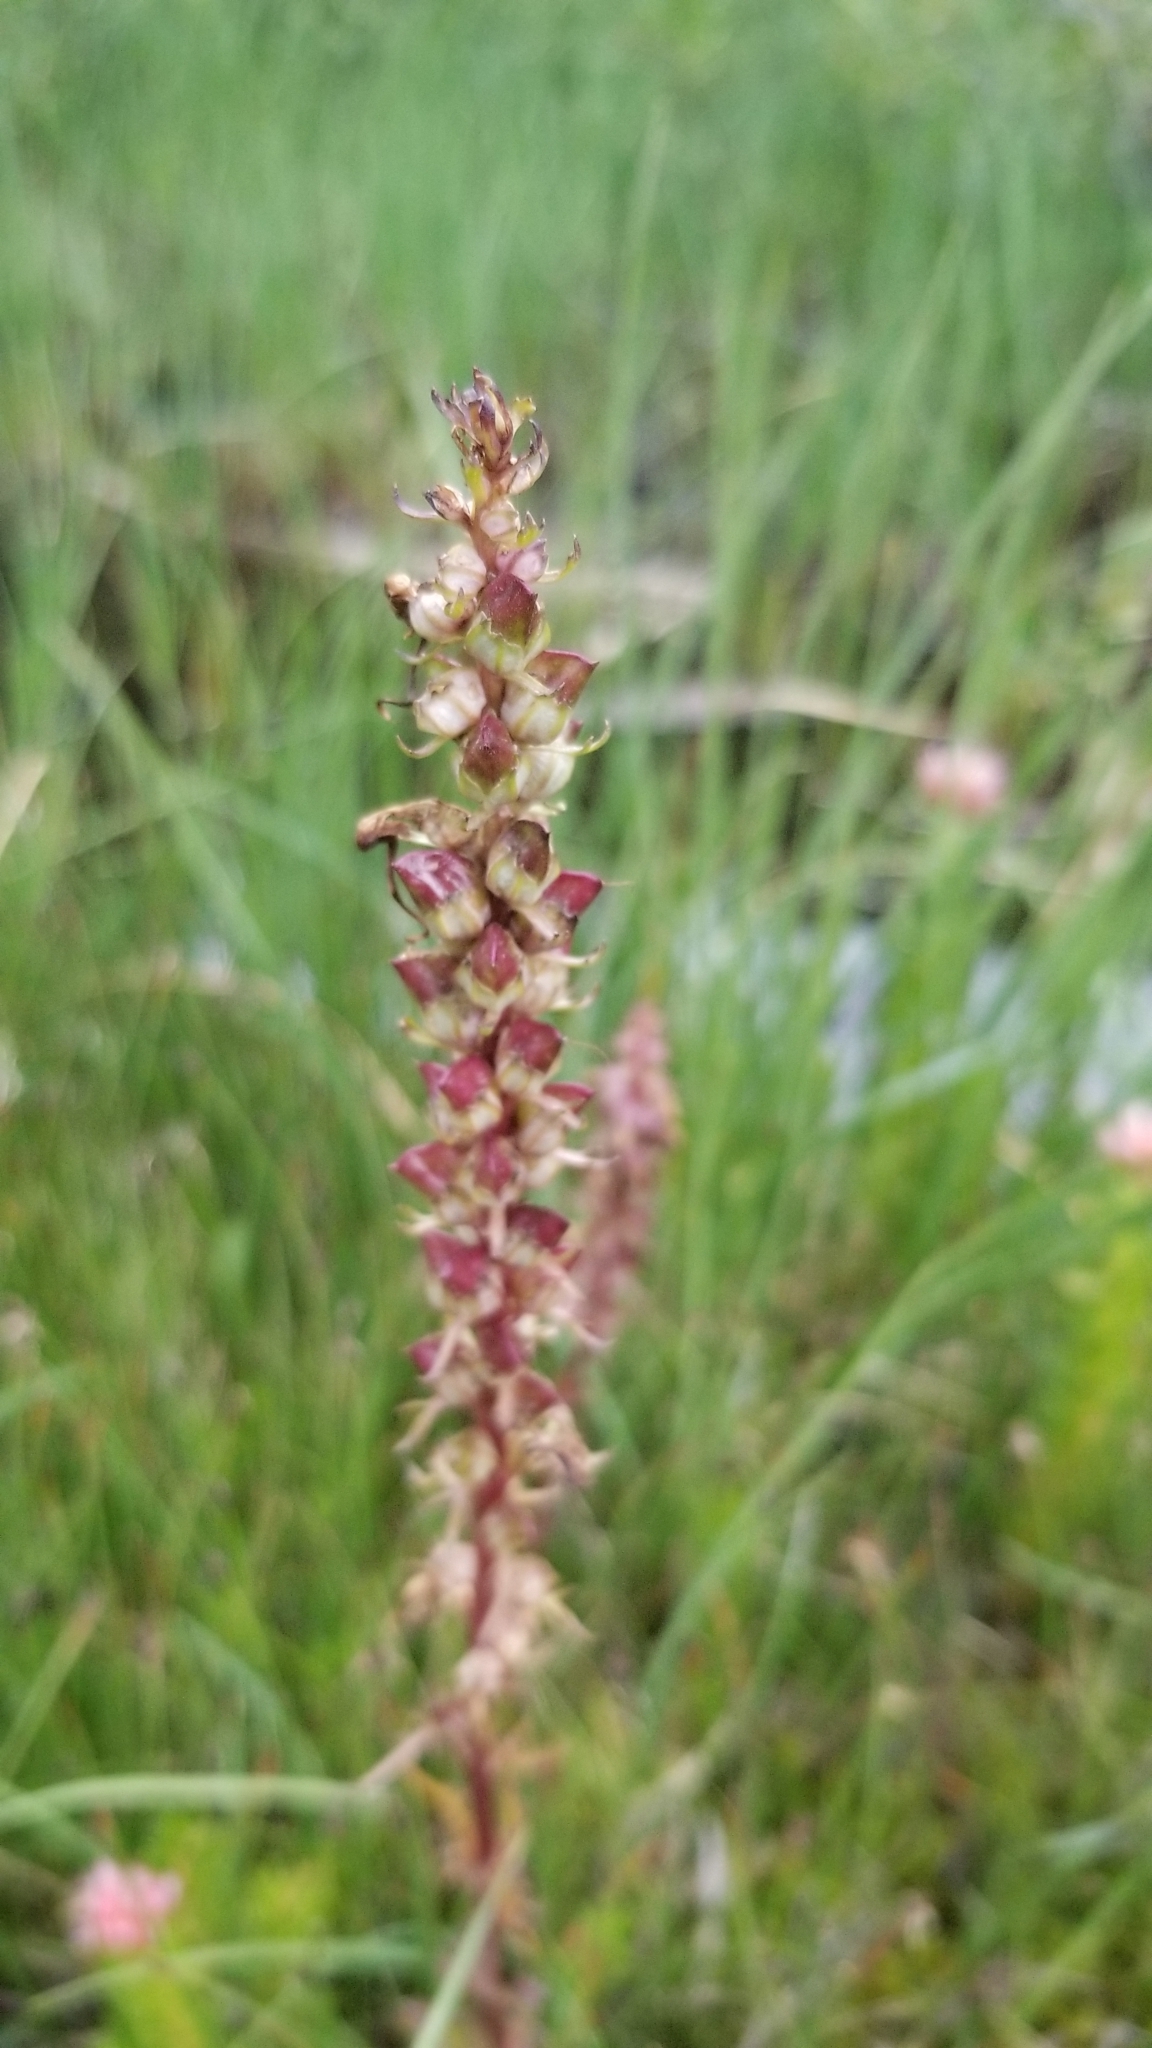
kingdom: Plantae
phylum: Tracheophyta
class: Magnoliopsida
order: Lamiales
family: Orobanchaceae
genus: Pedicularis
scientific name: Pedicularis groenlandica
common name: Elephant's-head
